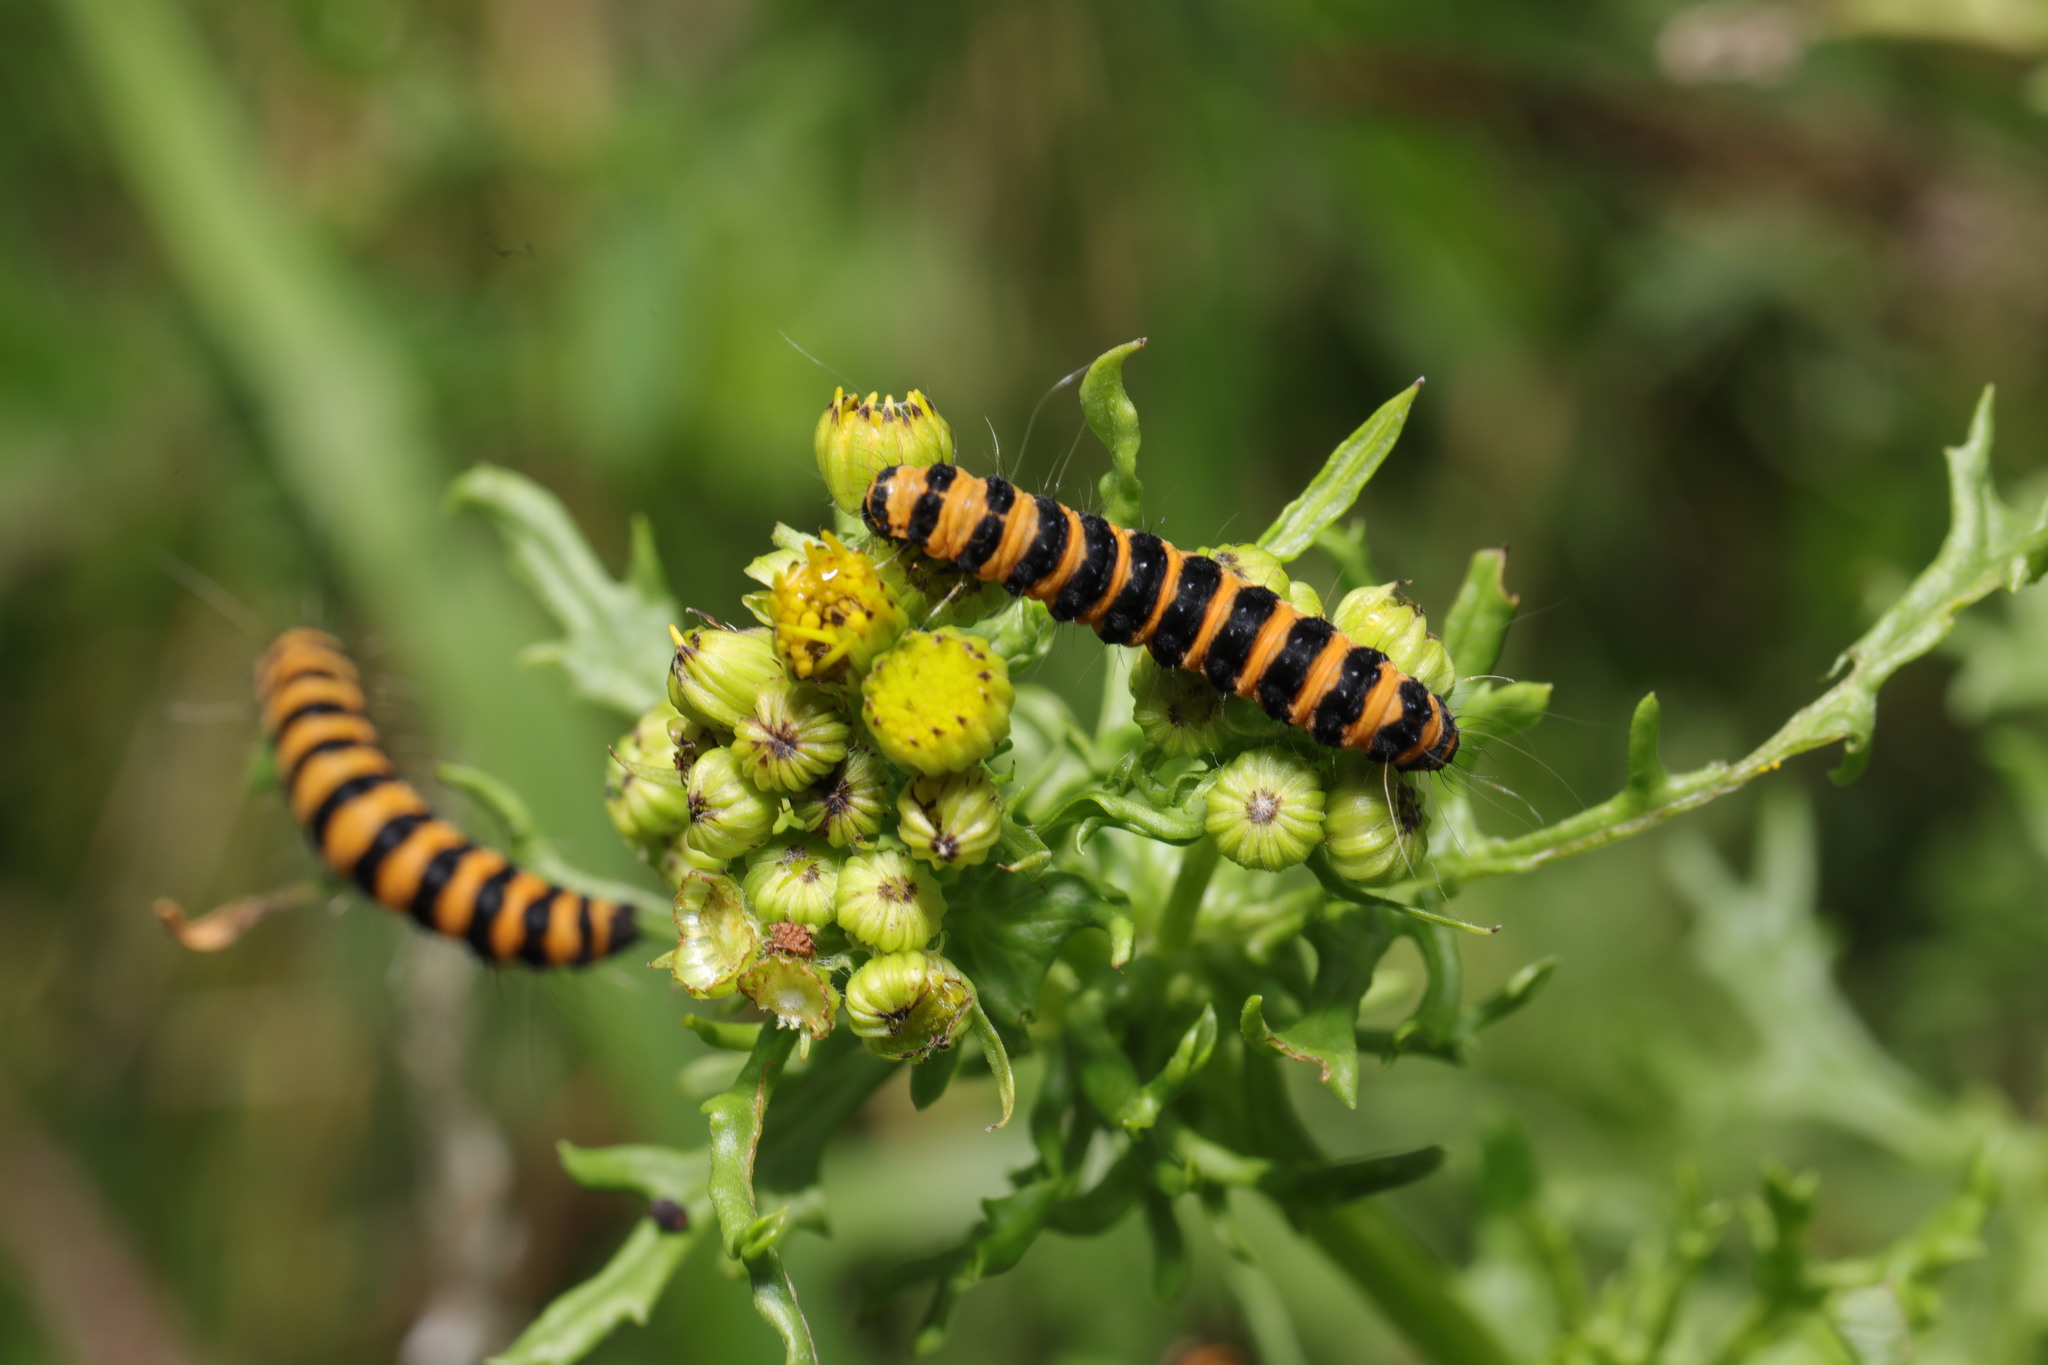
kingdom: Animalia
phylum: Arthropoda
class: Insecta
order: Lepidoptera
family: Erebidae
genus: Tyria
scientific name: Tyria jacobaeae
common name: Cinnabar
